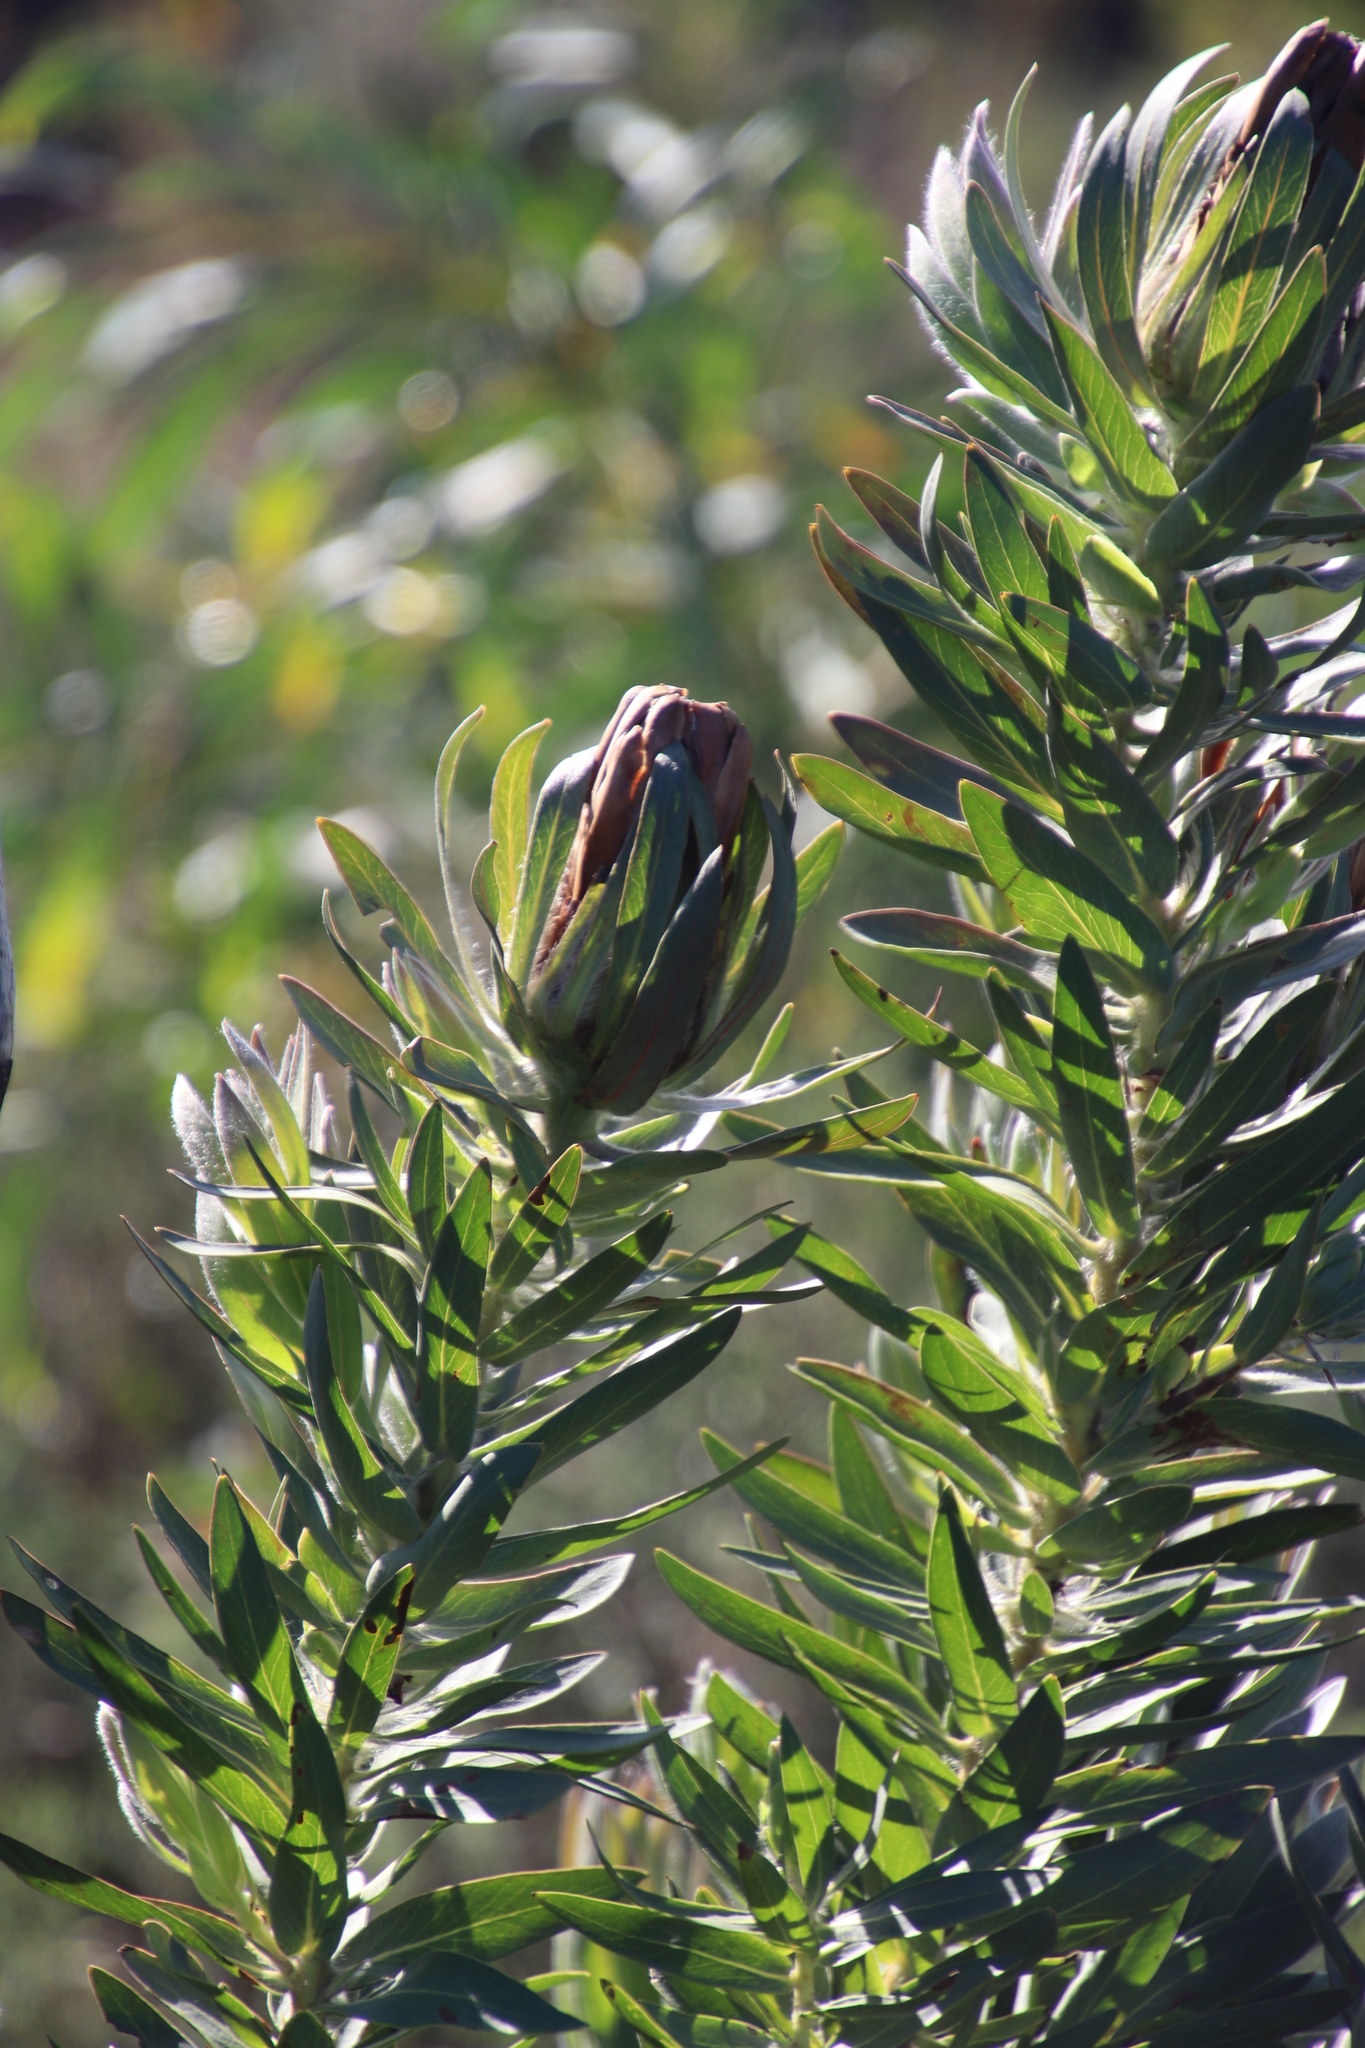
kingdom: Plantae
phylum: Tracheophyta
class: Magnoliopsida
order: Proteales
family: Proteaceae
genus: Protea
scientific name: Protea coronata
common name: Green sugarbush
